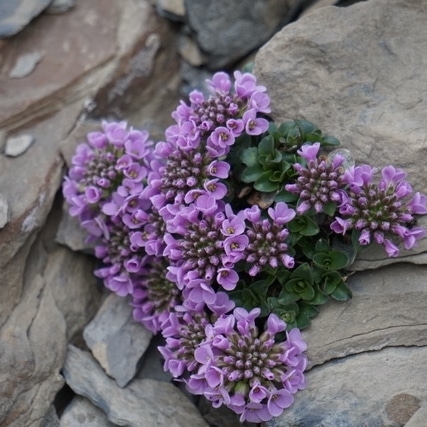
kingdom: Plantae
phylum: Tracheophyta
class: Magnoliopsida
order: Brassicales
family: Brassicaceae
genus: Noccaea
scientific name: Noccaea rotundifolia
